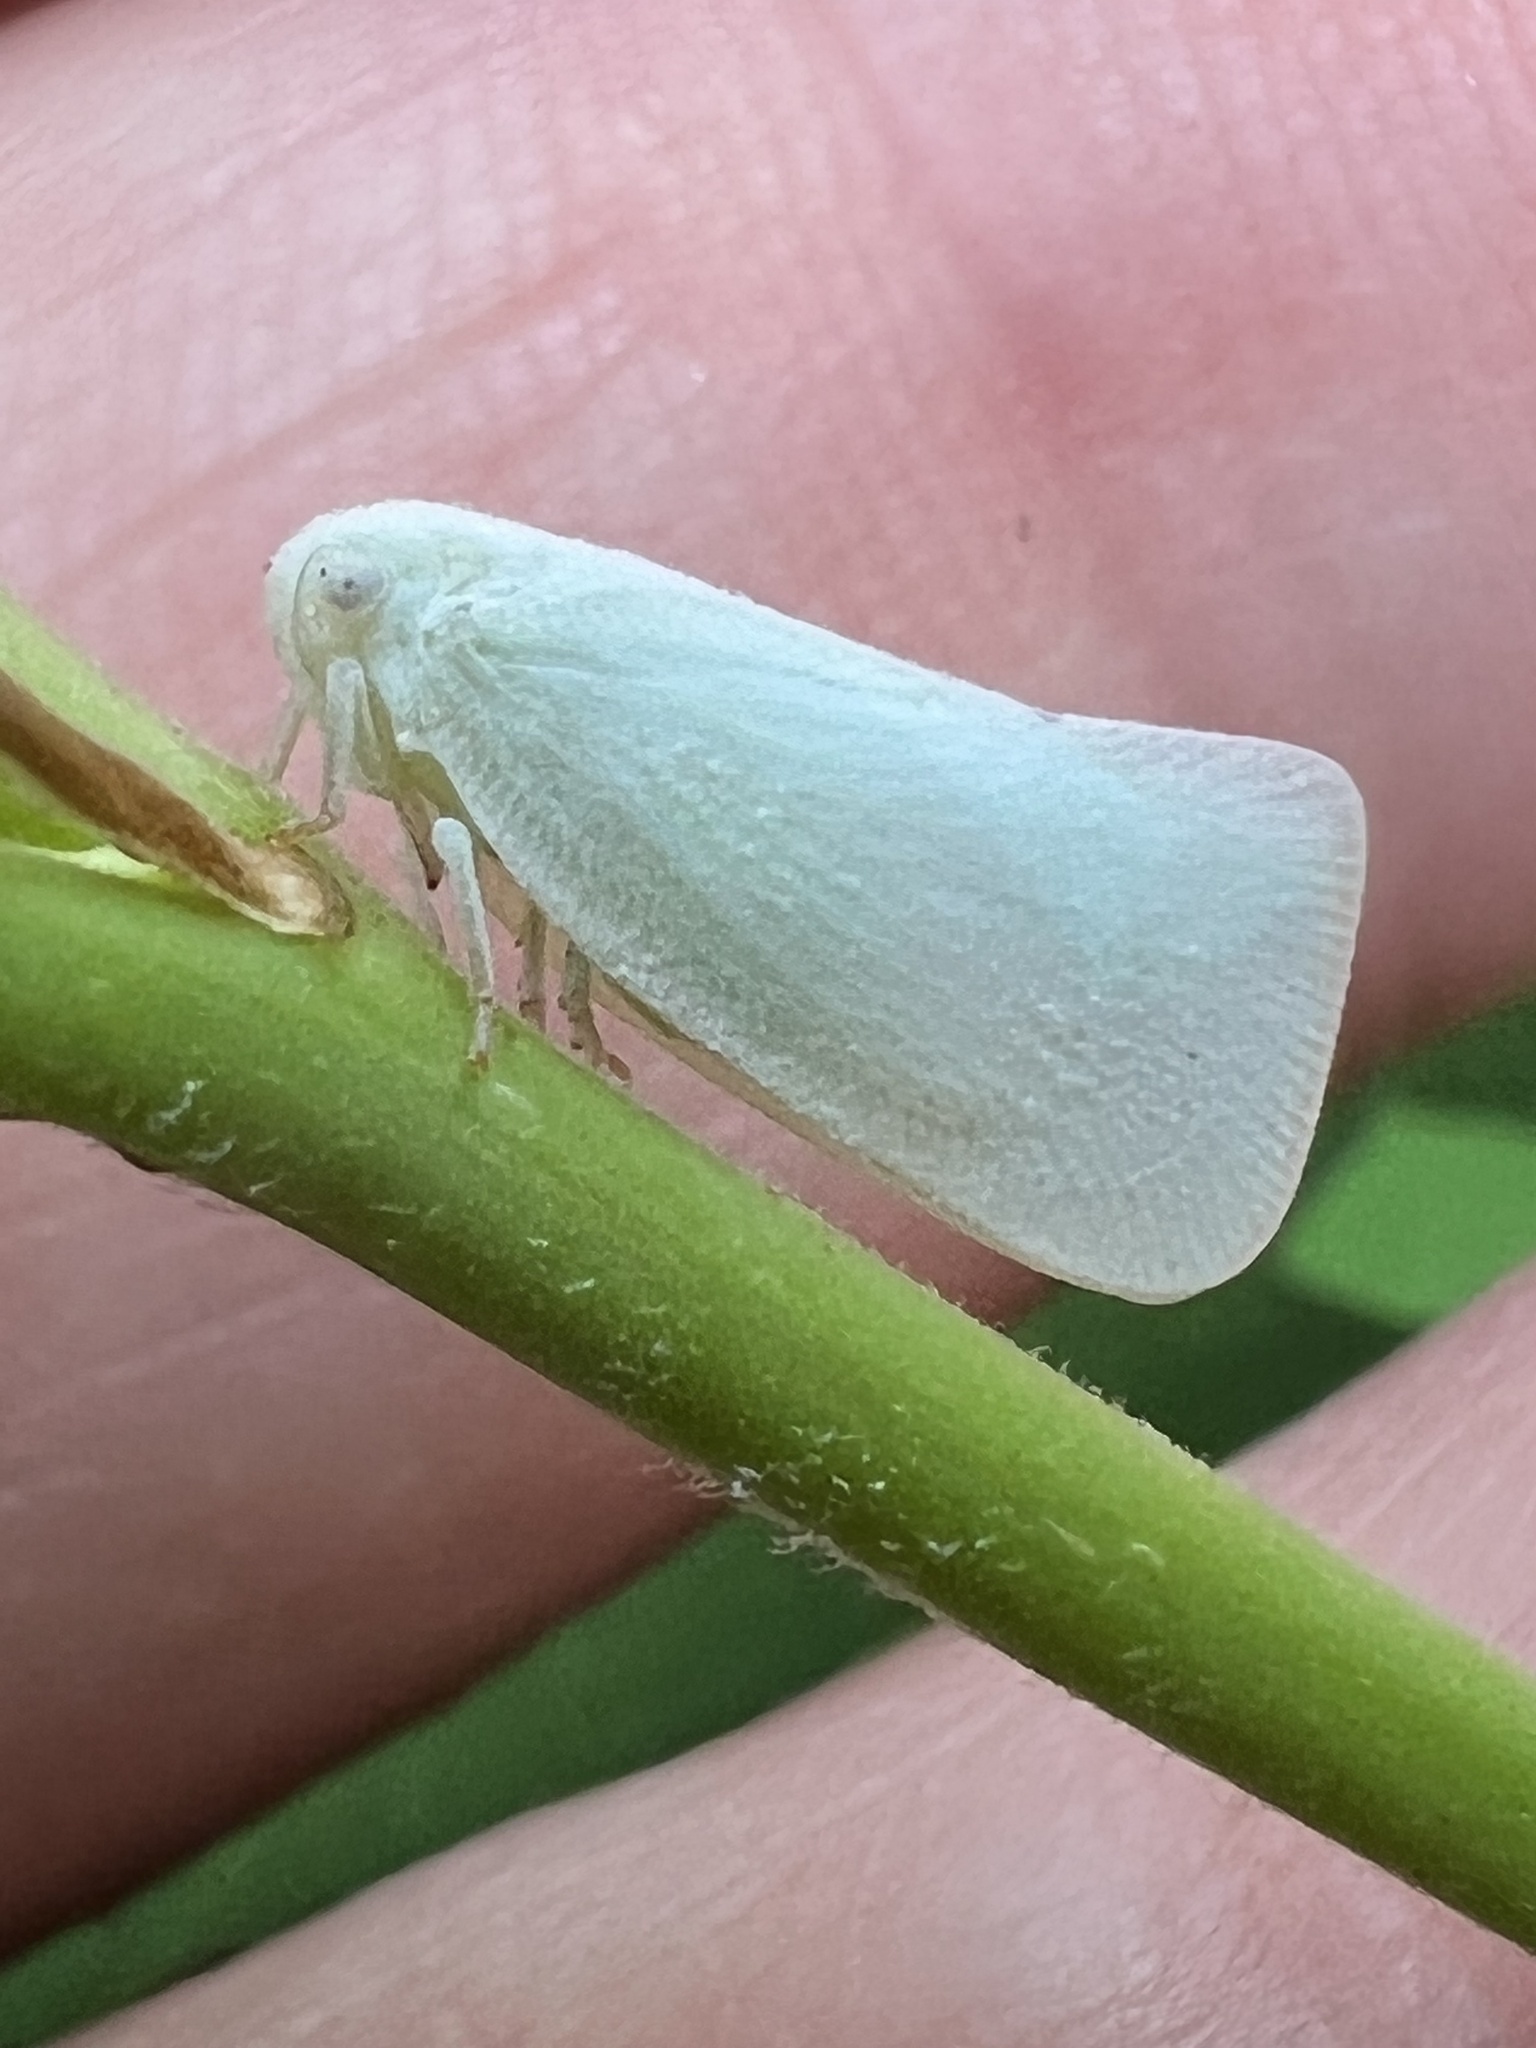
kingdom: Animalia
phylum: Arthropoda
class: Insecta
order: Hemiptera
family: Flatidae
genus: Flatormenis
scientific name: Flatormenis proxima
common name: Northern flatid planthopper
